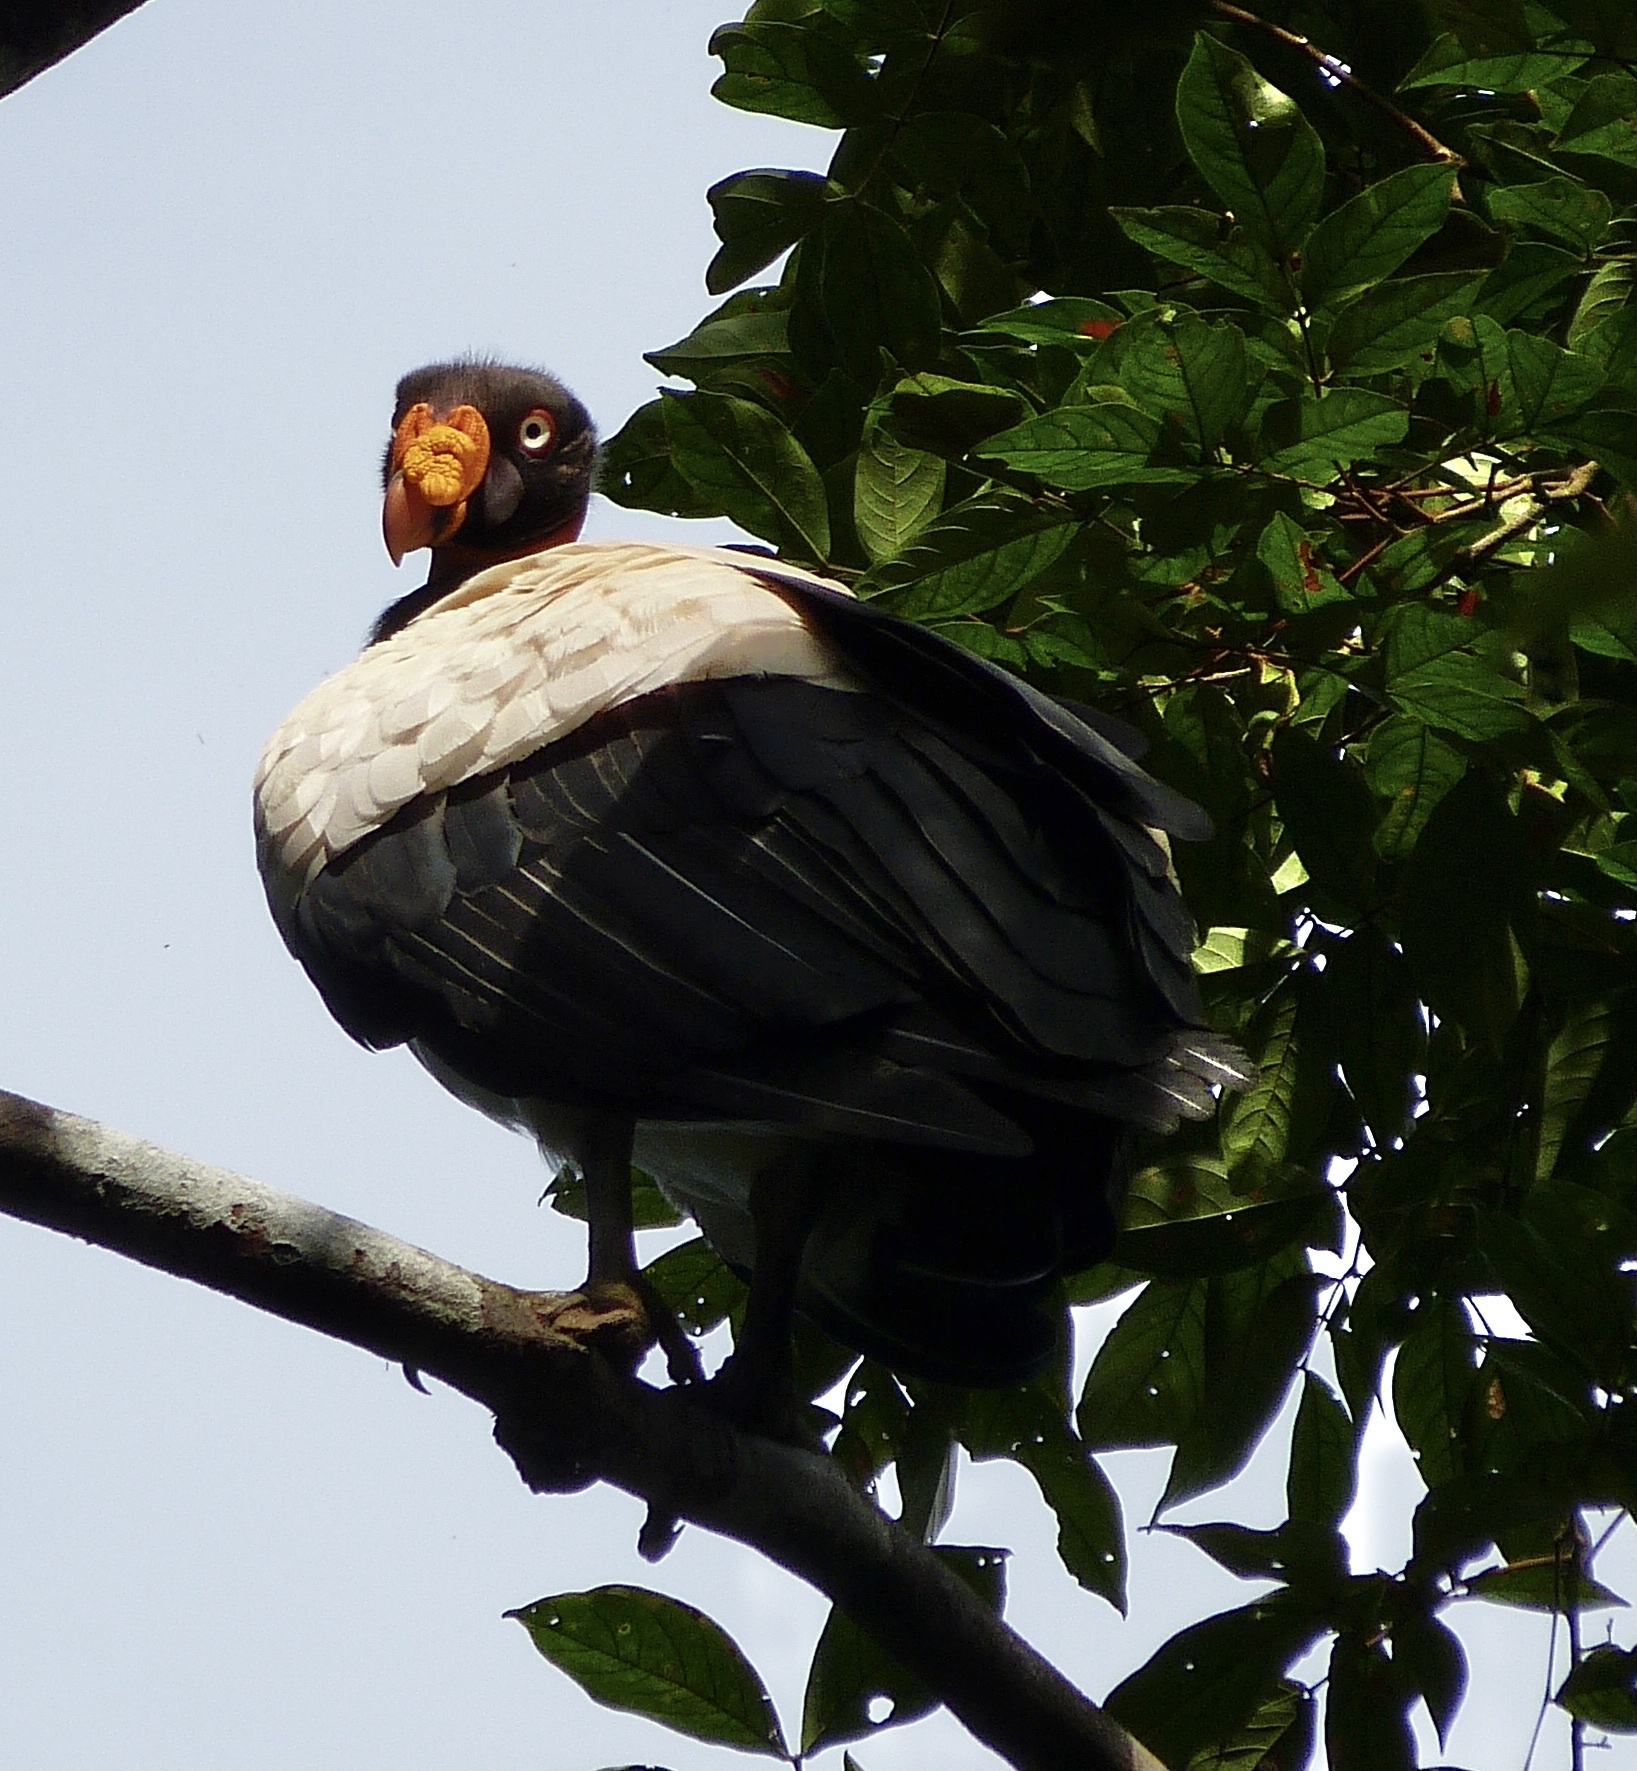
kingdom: Animalia
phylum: Chordata
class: Aves
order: Accipitriformes
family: Cathartidae
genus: Sarcoramphus
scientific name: Sarcoramphus papa
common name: King vulture
